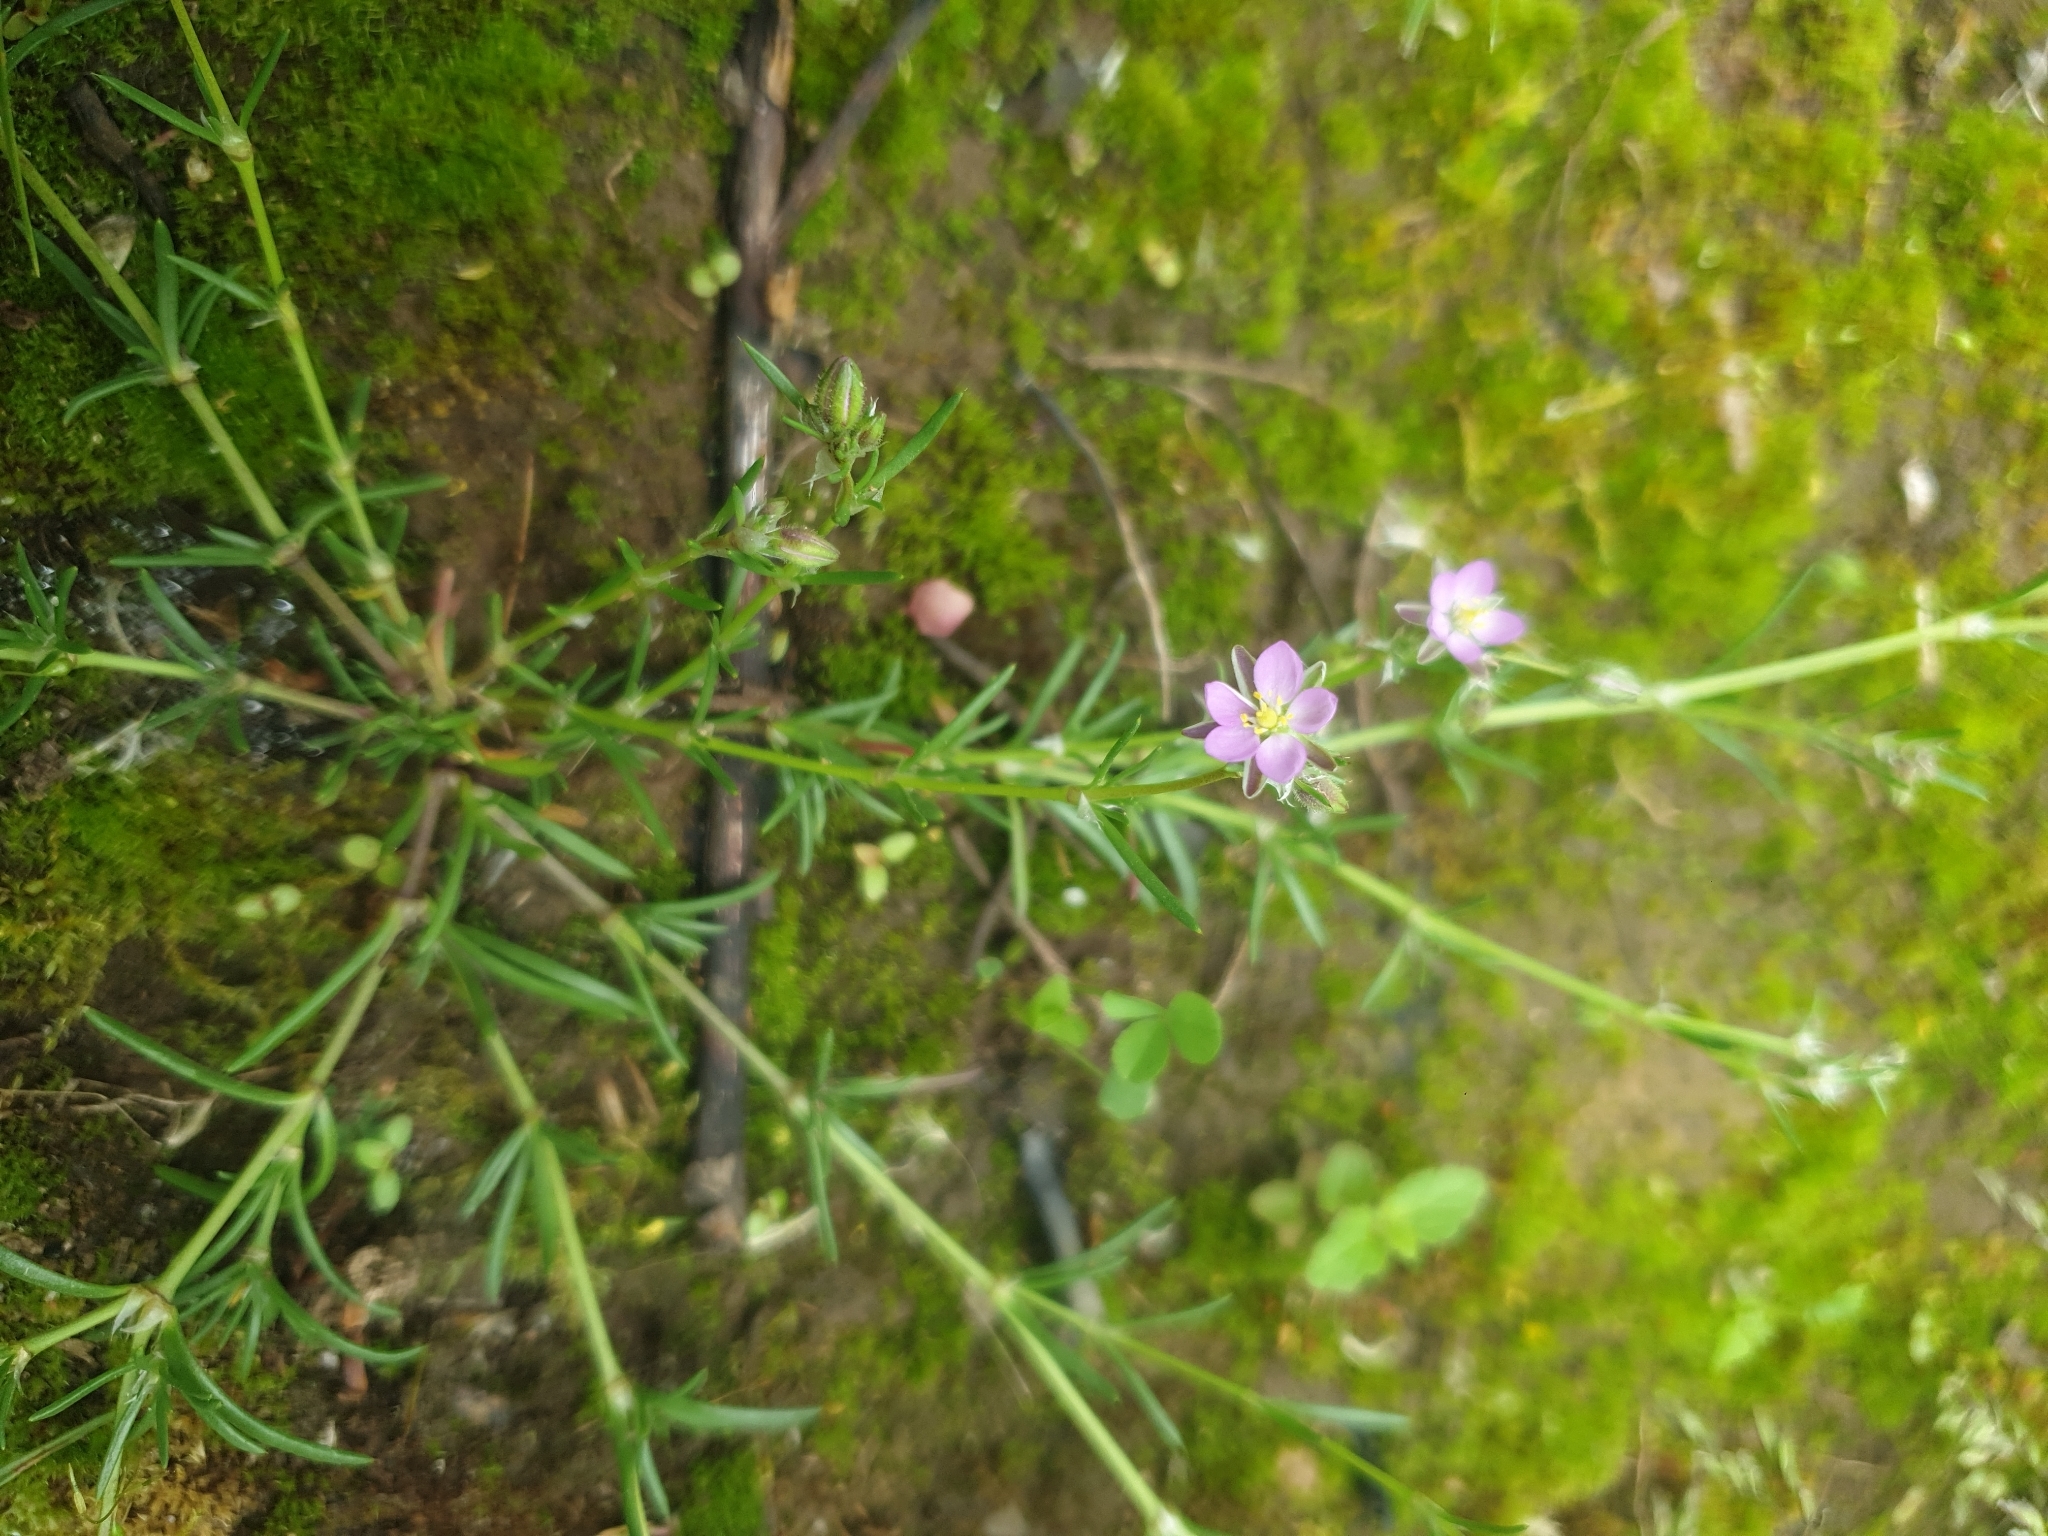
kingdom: Plantae
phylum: Tracheophyta
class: Magnoliopsida
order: Caryophyllales
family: Caryophyllaceae
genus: Spergularia
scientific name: Spergularia rubra
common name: Red sand-spurrey
